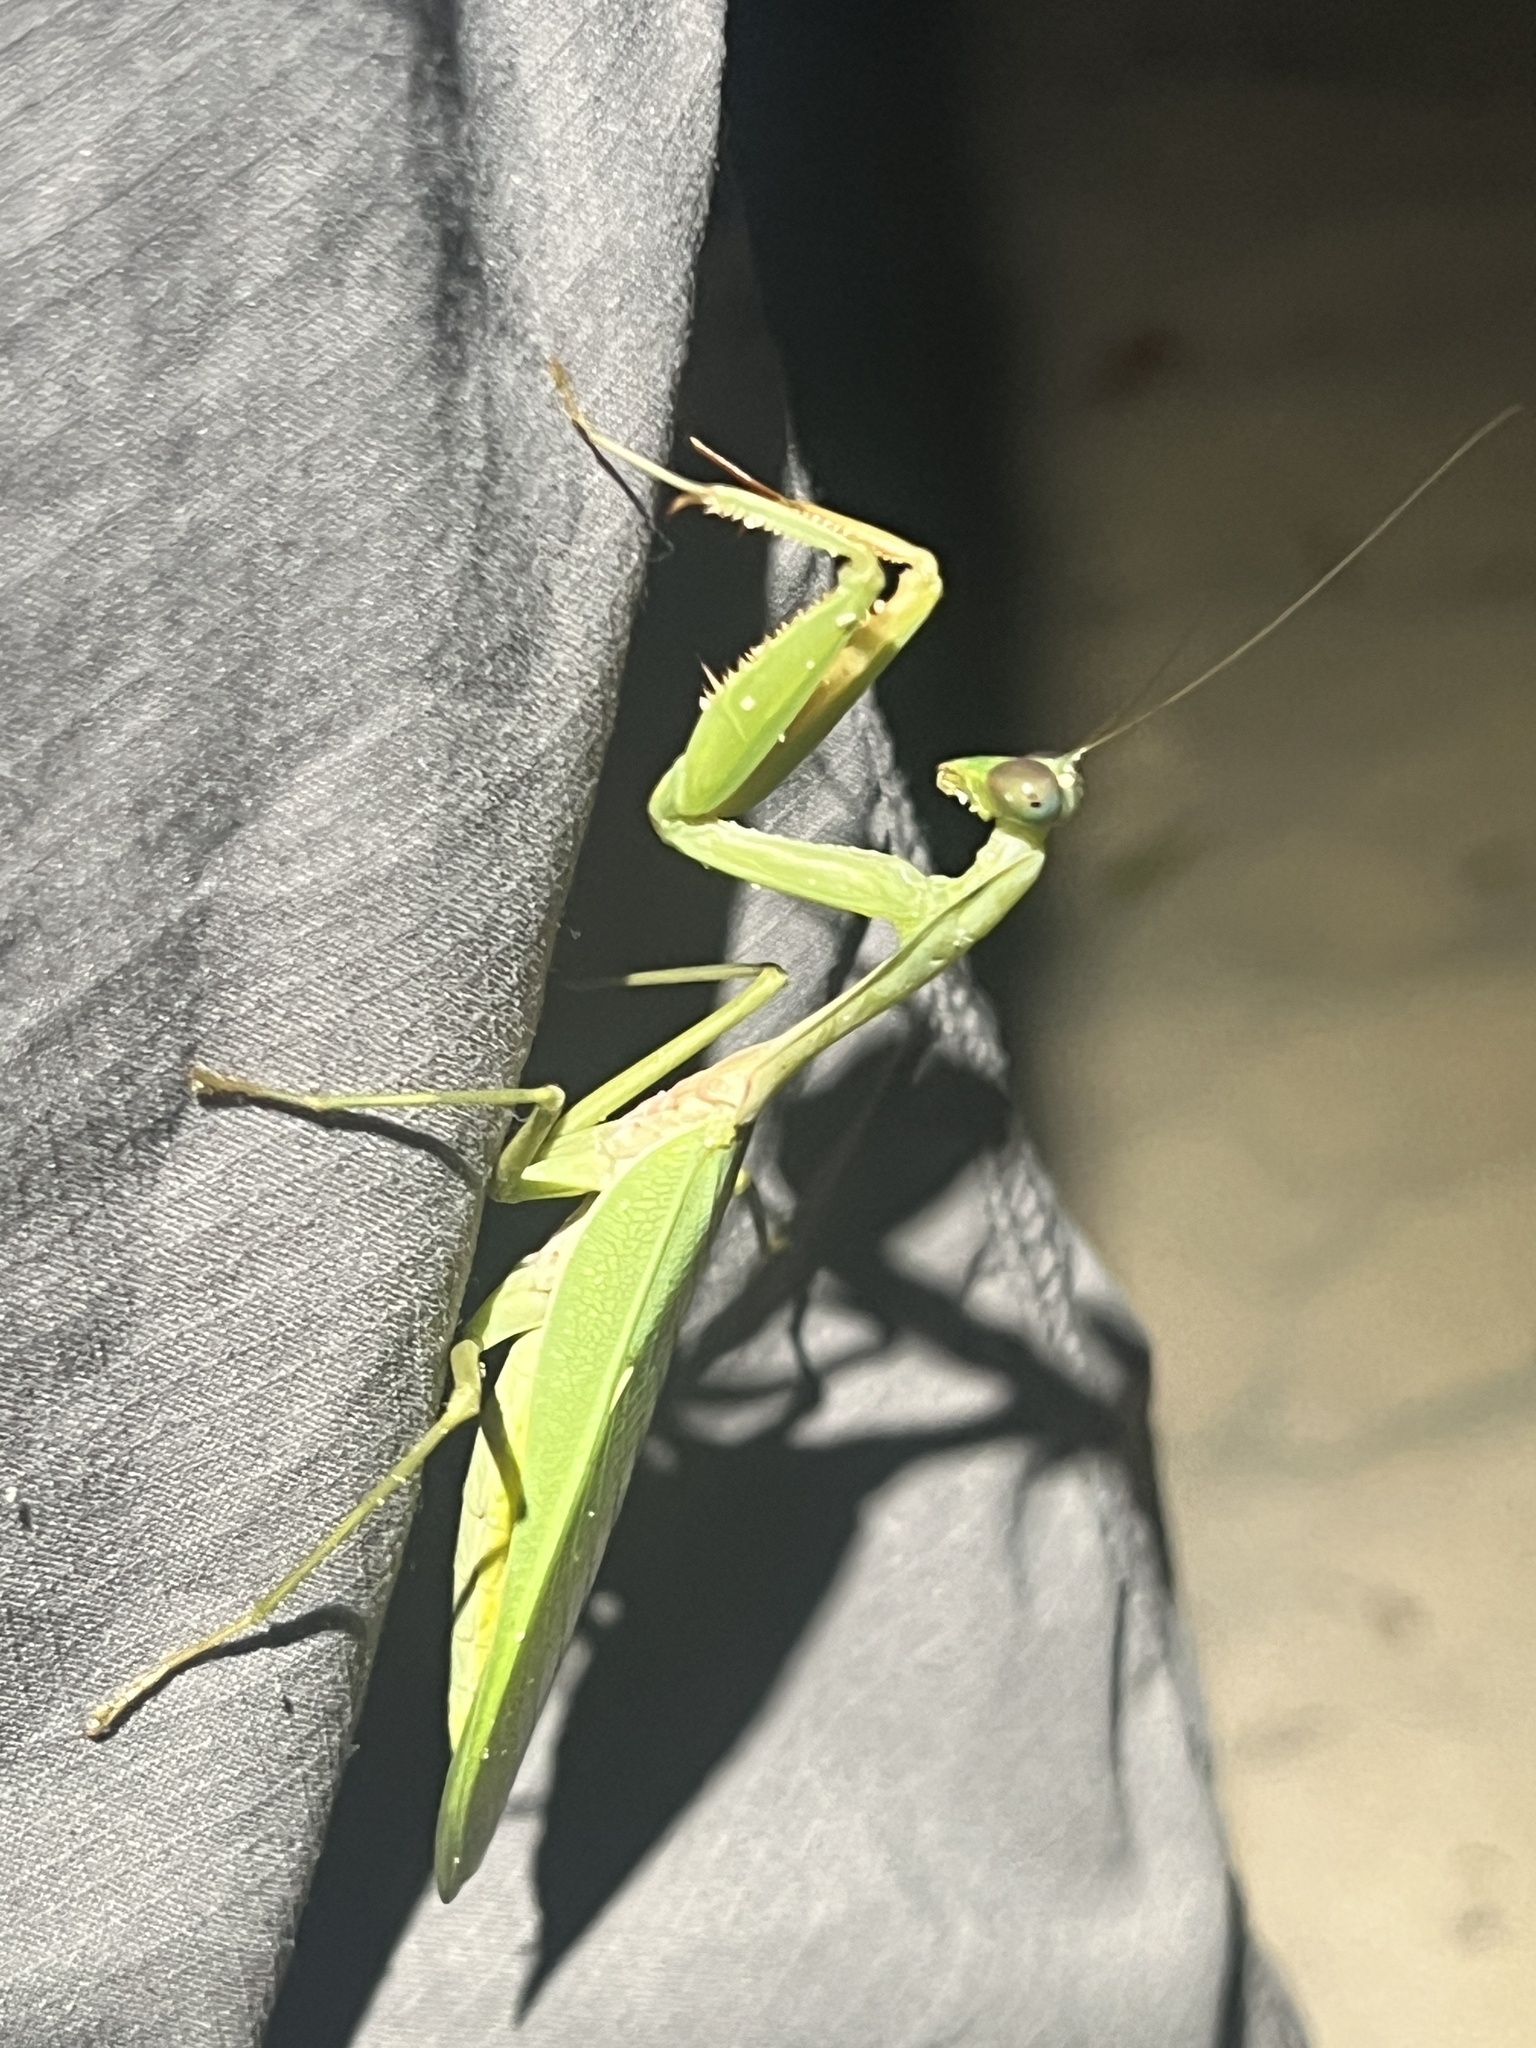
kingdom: Animalia
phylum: Arthropoda
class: Insecta
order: Mantodea
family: Mantidae
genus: Rhombodera
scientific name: Rhombodera palawanensis
